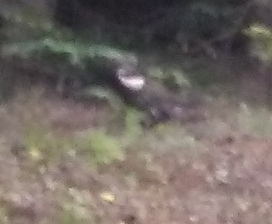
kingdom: Animalia
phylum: Chordata
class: Aves
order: Galliformes
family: Phasianidae
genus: Dendragapus
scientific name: Dendragapus obscurus
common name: Dusky grouse
